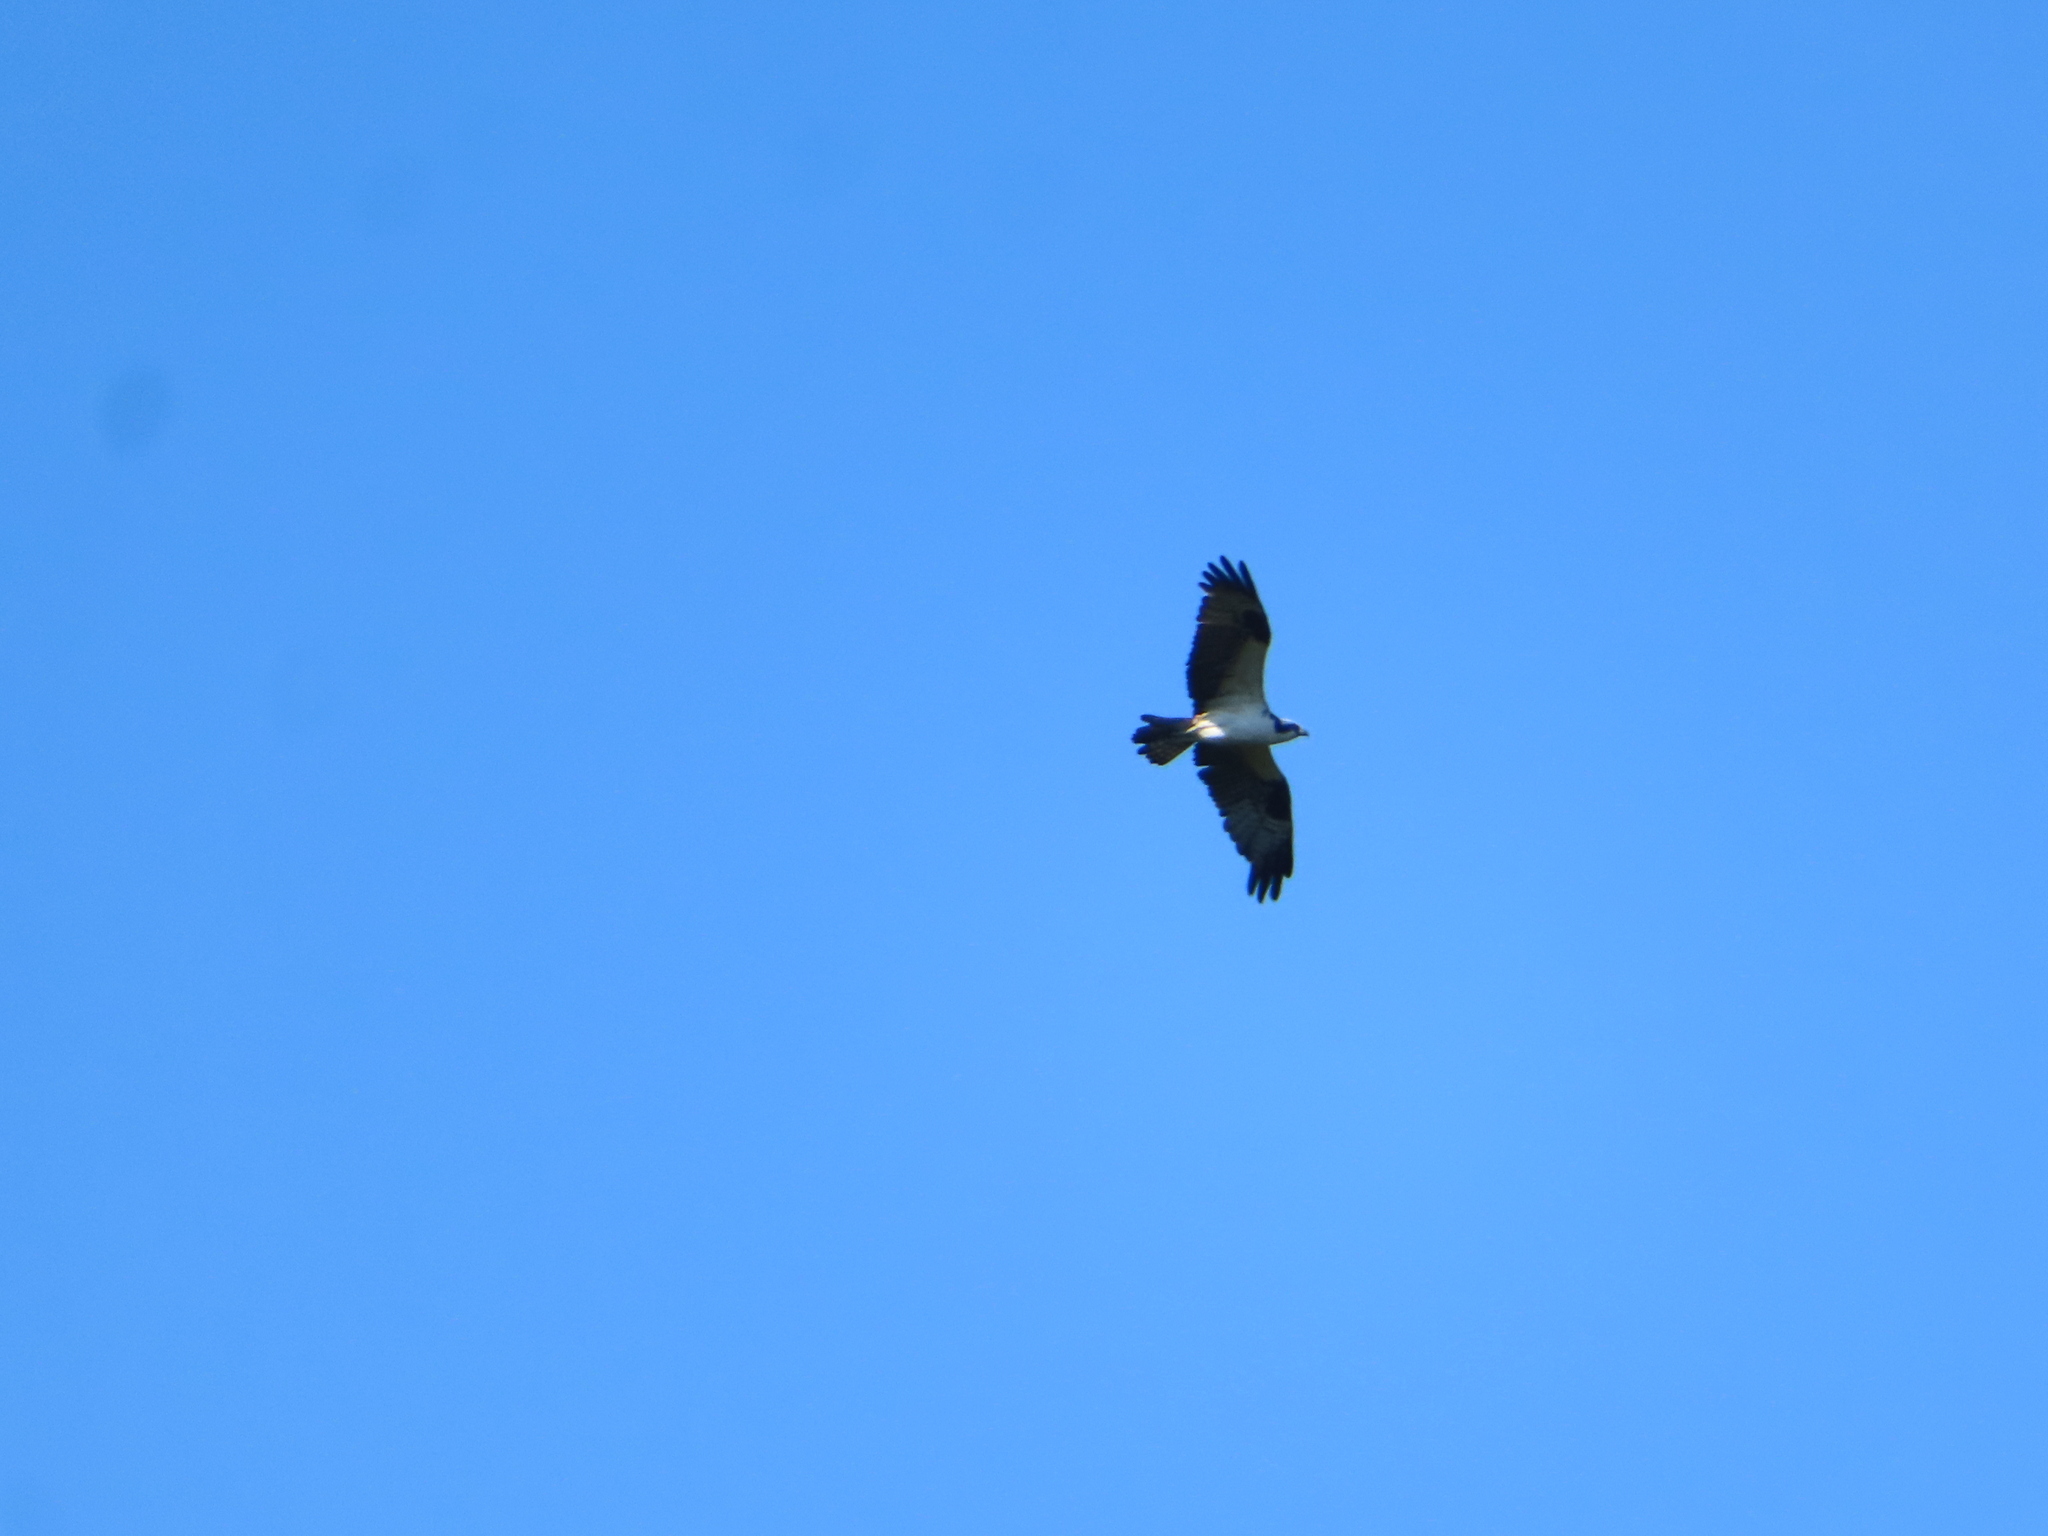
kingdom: Animalia
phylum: Chordata
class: Aves
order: Accipitriformes
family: Pandionidae
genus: Pandion
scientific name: Pandion haliaetus
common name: Osprey
